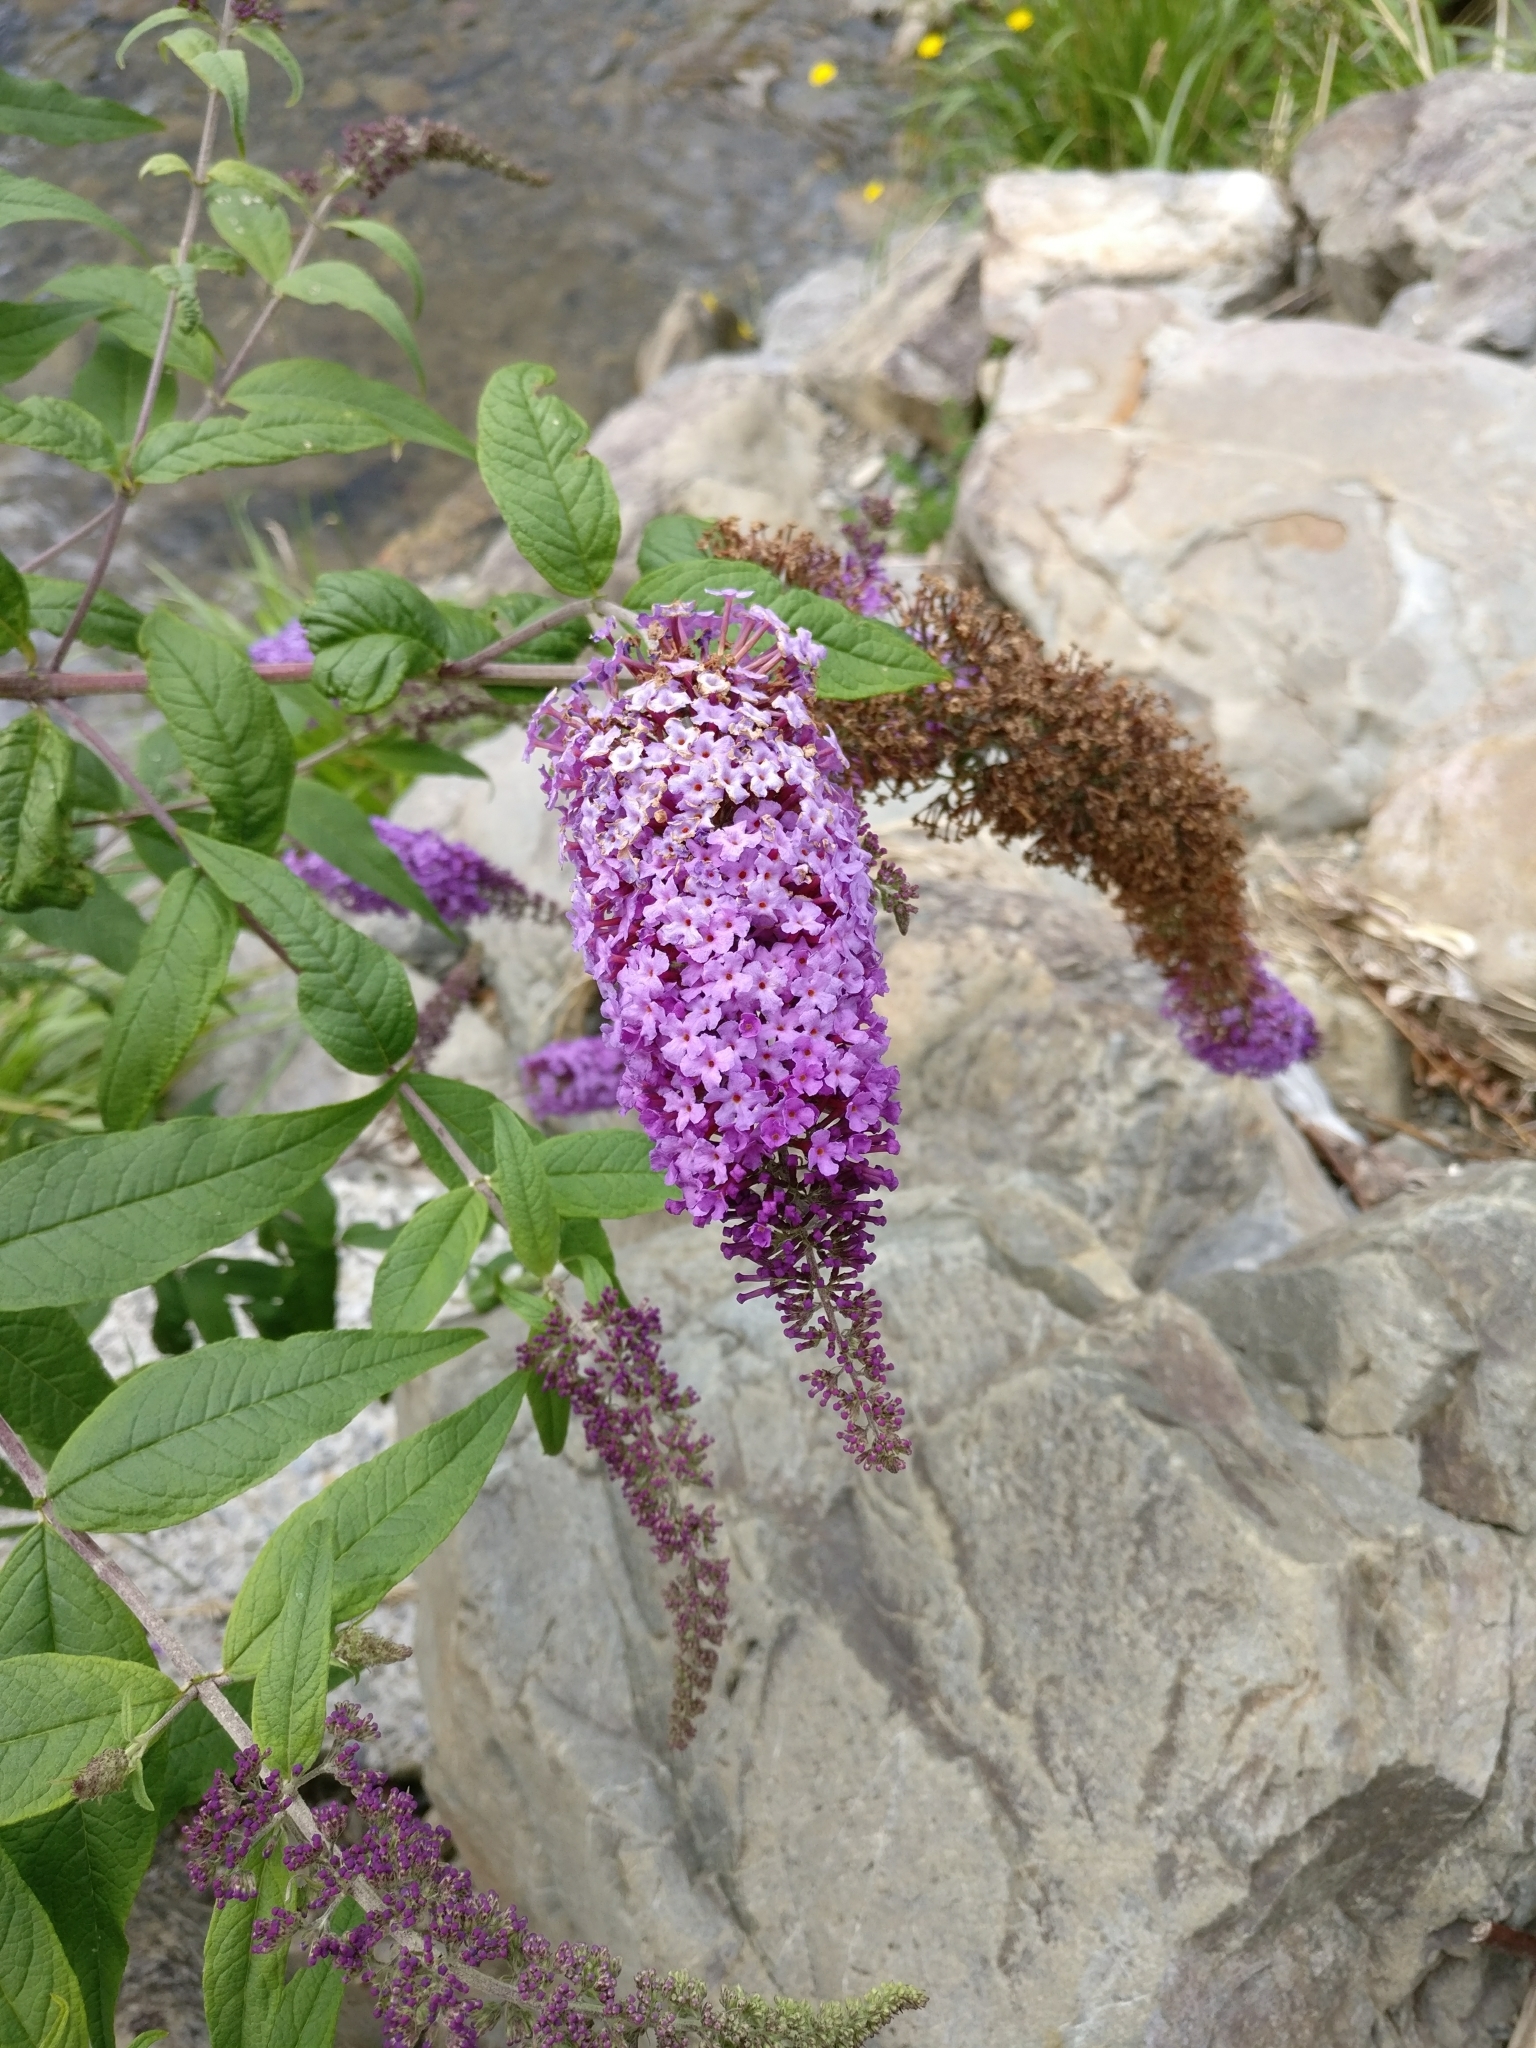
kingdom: Plantae
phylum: Tracheophyta
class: Magnoliopsida
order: Lamiales
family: Scrophulariaceae
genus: Buddleja
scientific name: Buddleja davidii
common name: Butterfly-bush
